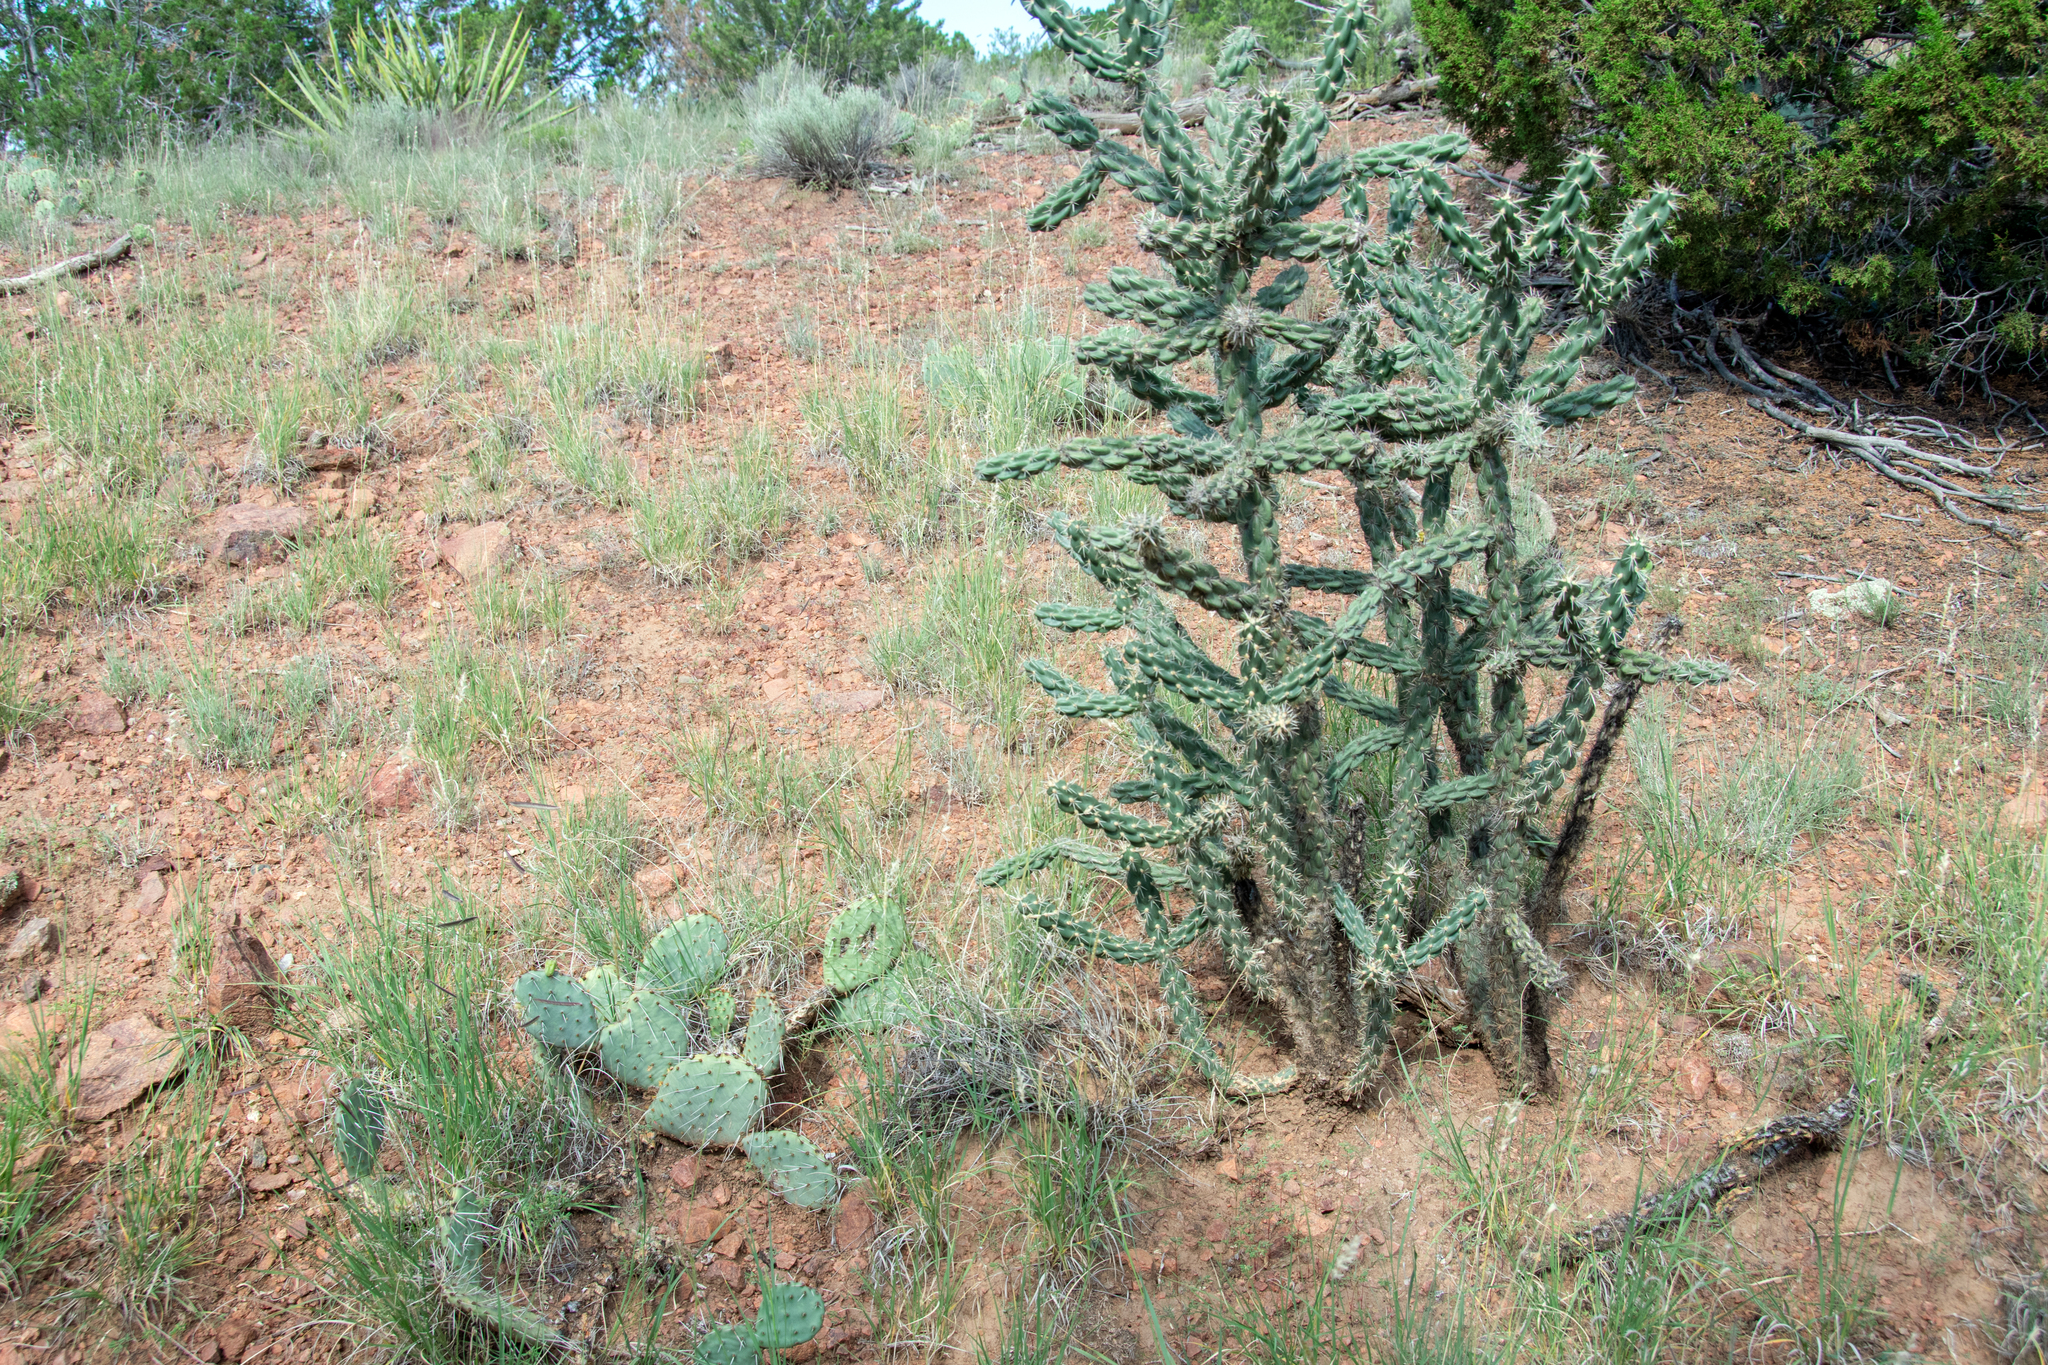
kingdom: Plantae
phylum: Tracheophyta
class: Magnoliopsida
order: Caryophyllales
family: Cactaceae
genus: Cylindropuntia
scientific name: Cylindropuntia imbricata
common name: Candelabrum cactus
